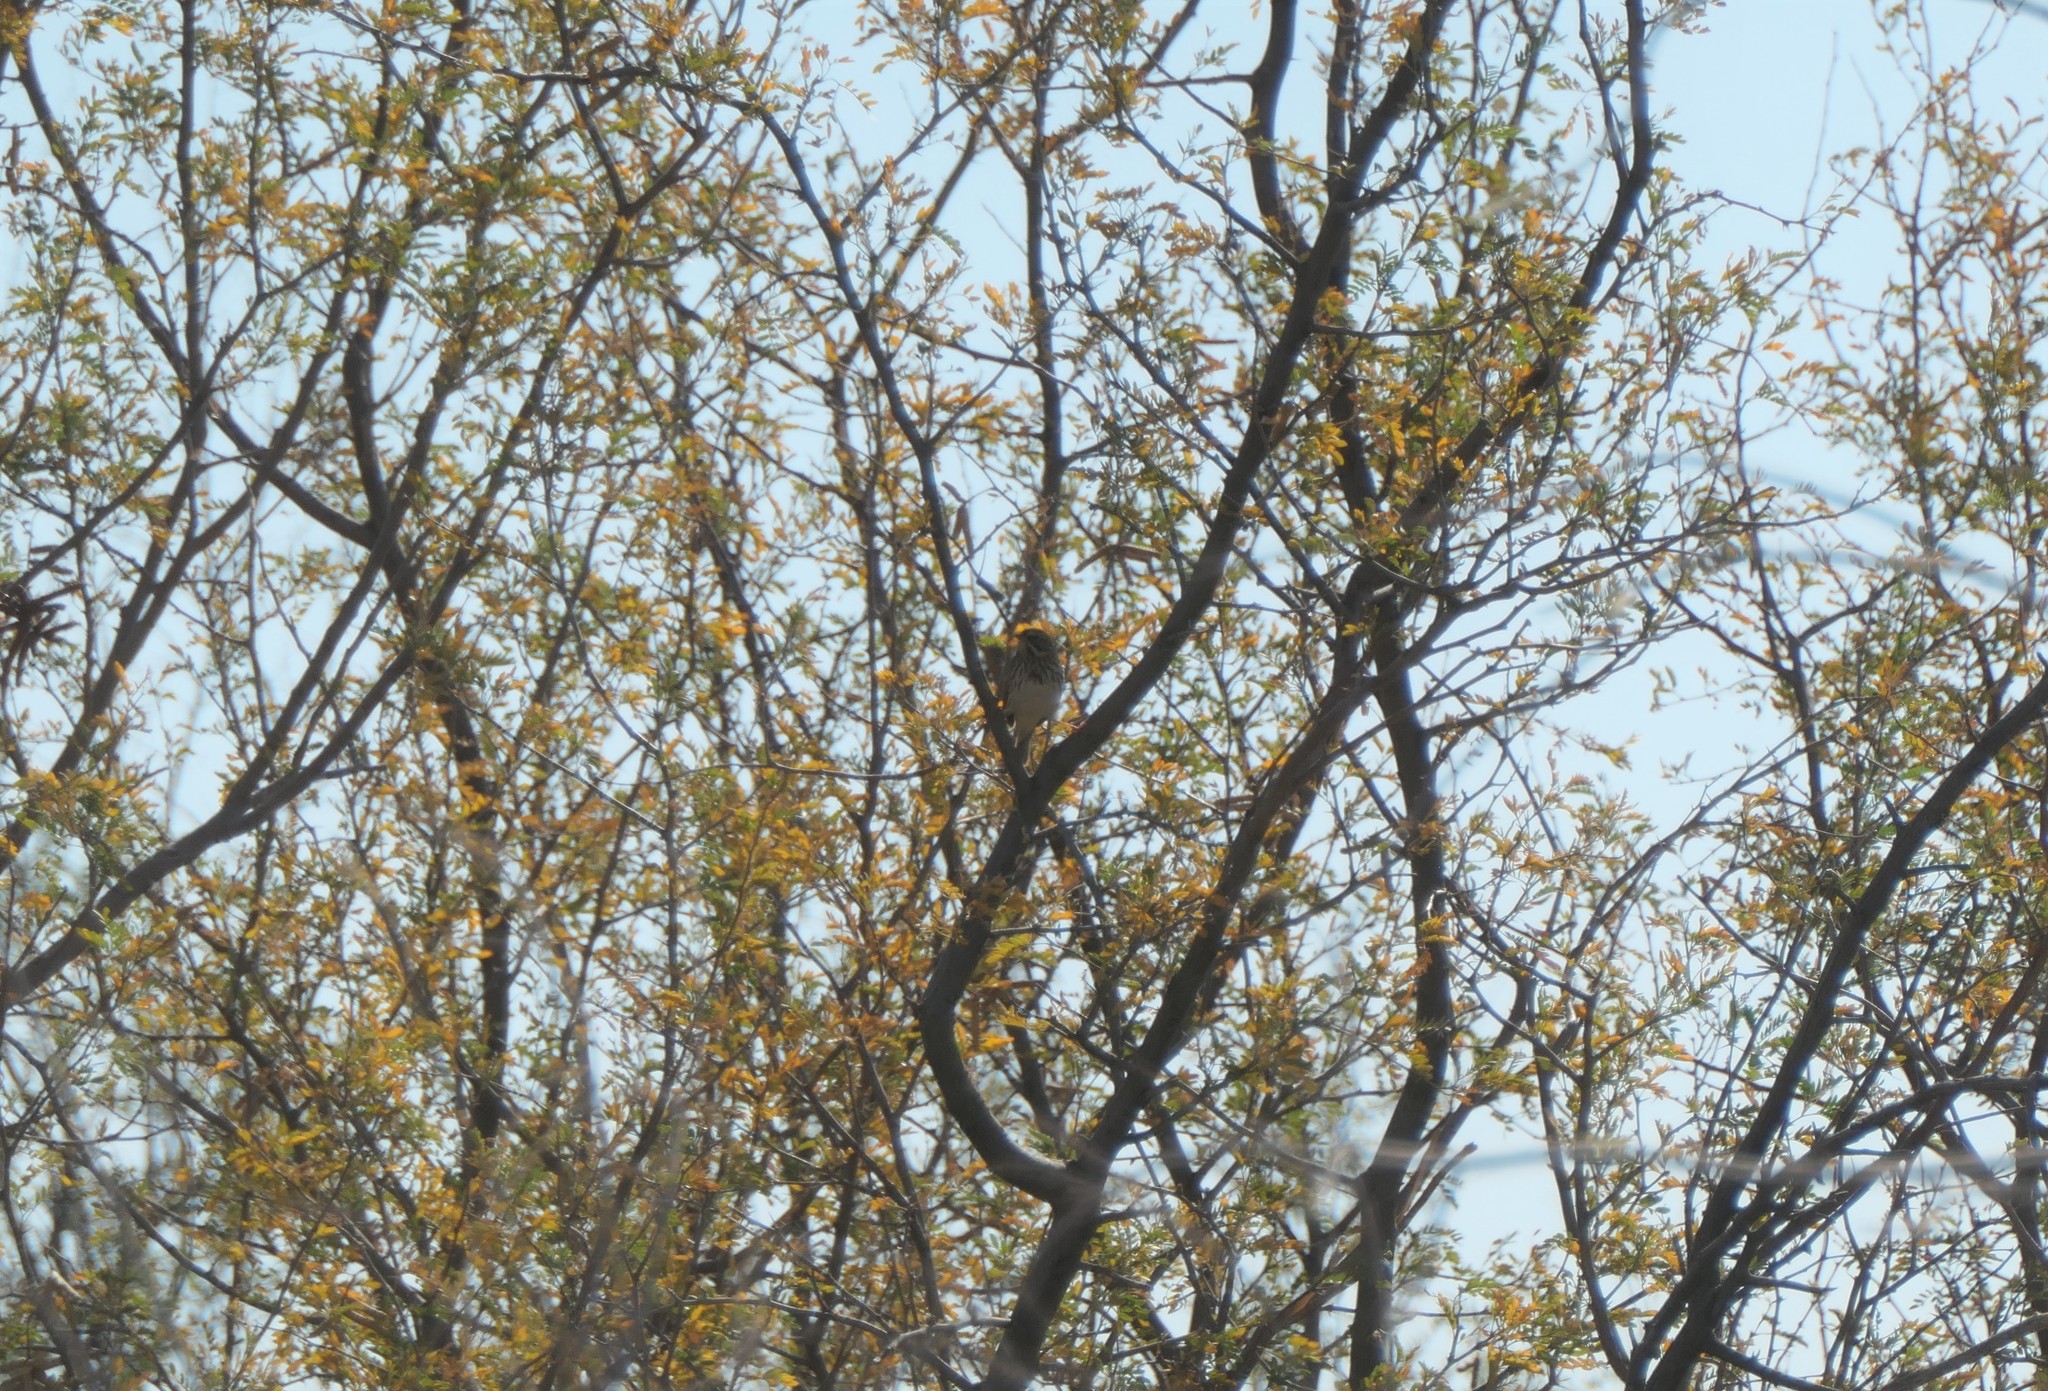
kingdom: Animalia
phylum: Chordata
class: Aves
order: Passeriformes
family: Passerellidae
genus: Passerculus
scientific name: Passerculus sandwichensis
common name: Savannah sparrow
